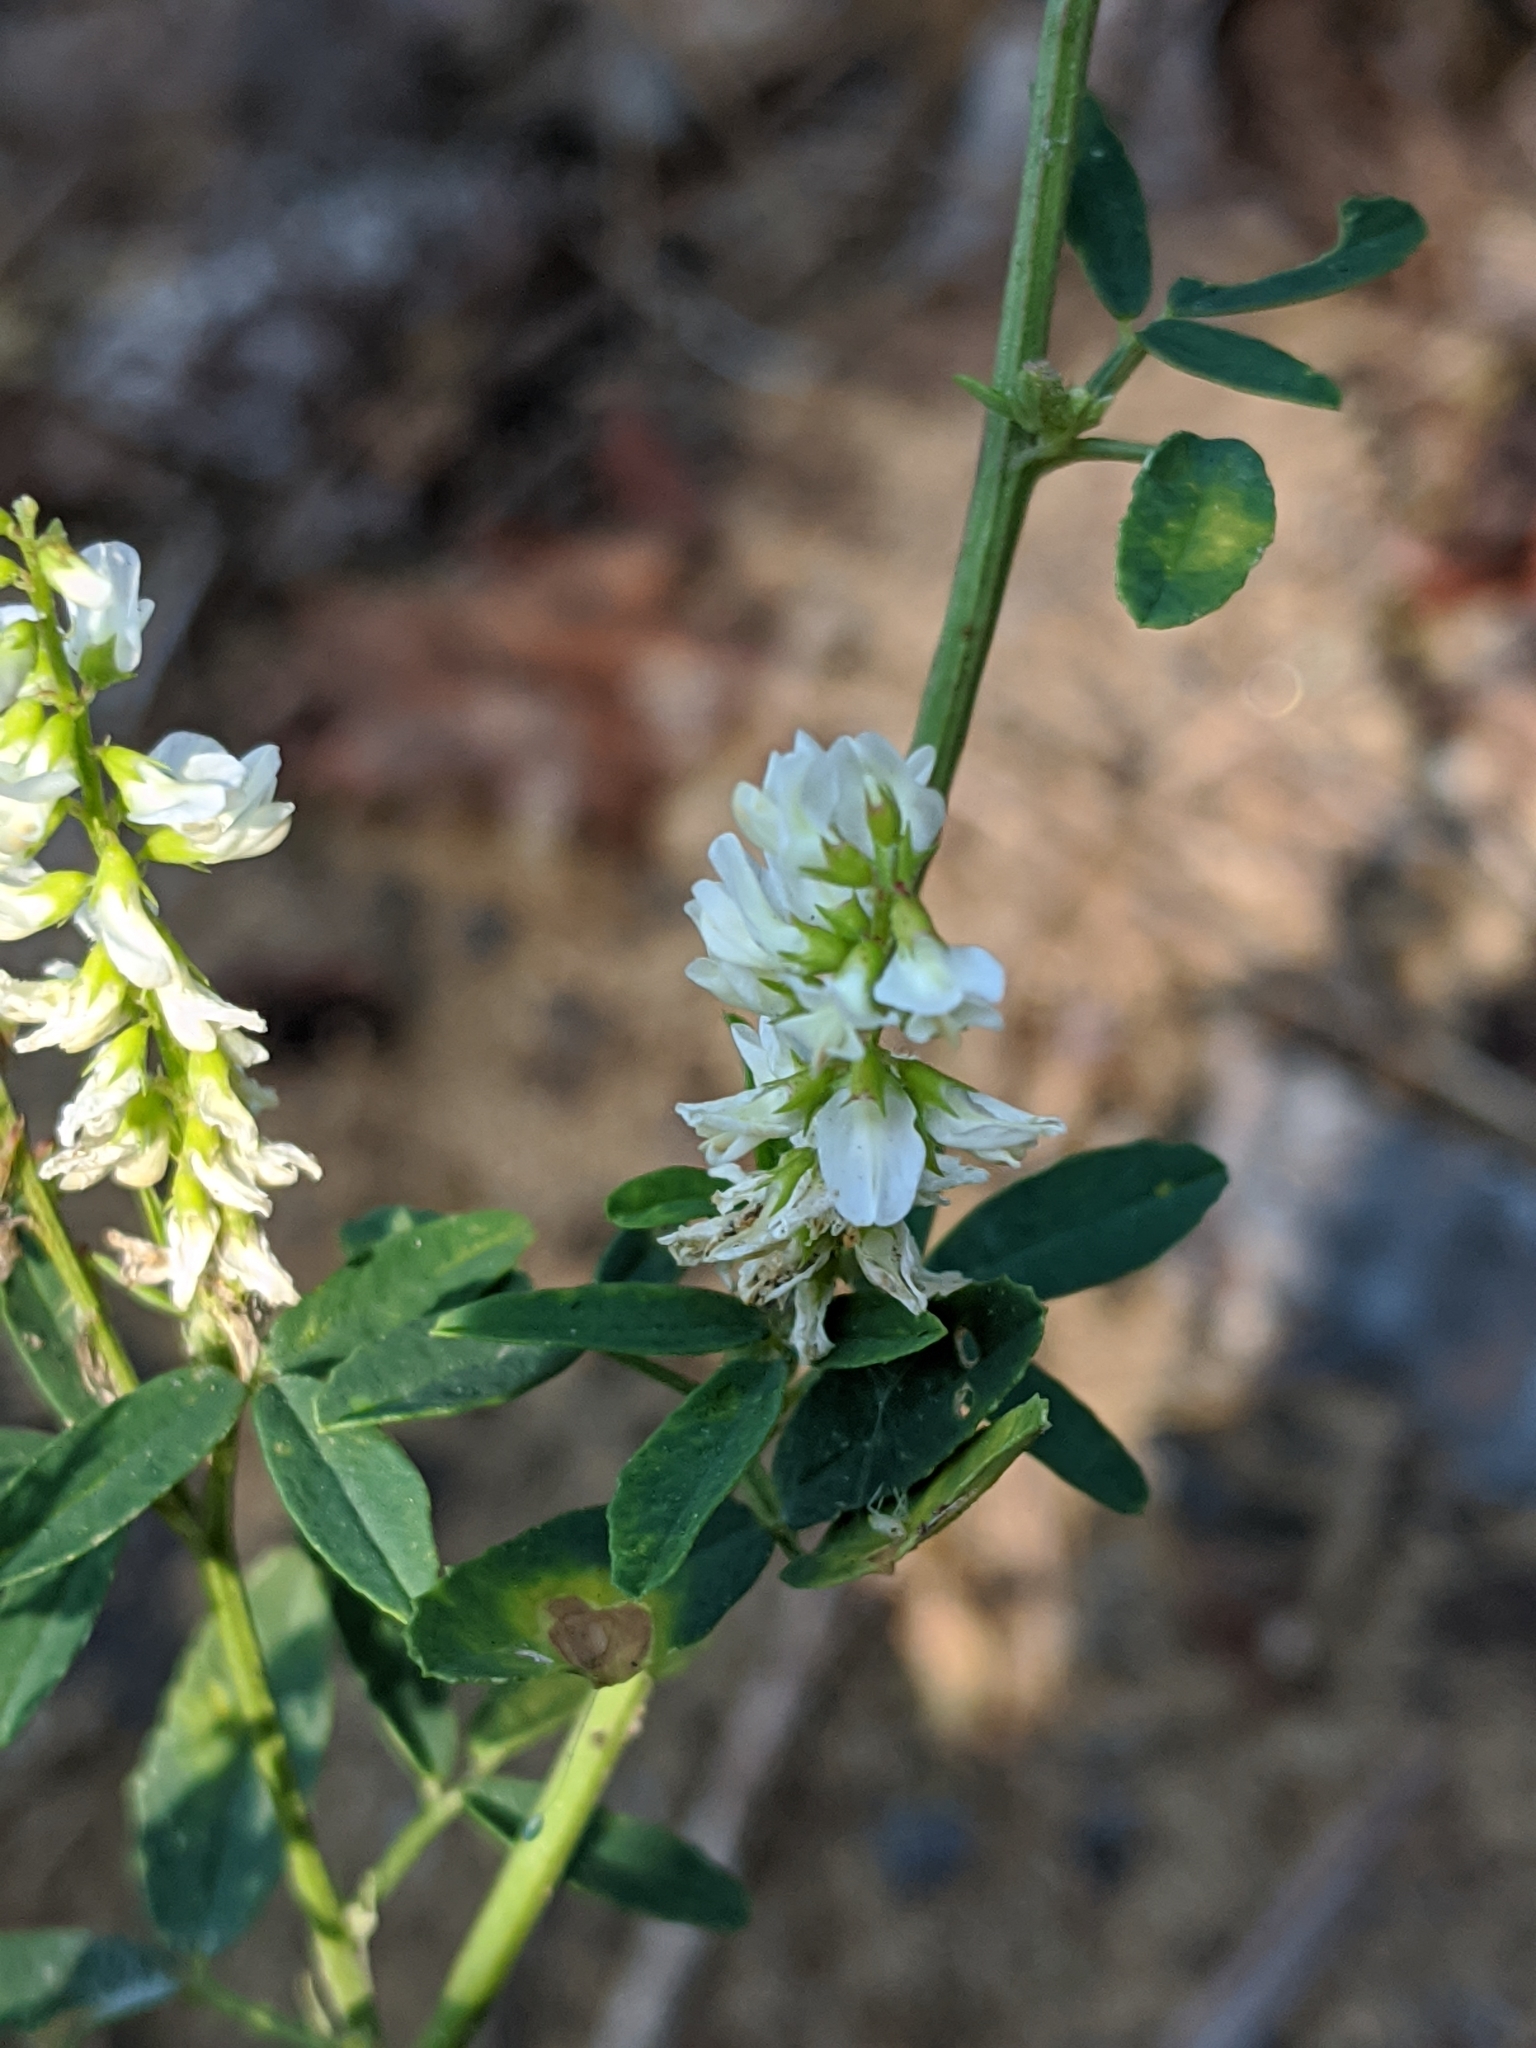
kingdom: Plantae
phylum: Tracheophyta
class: Magnoliopsida
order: Fabales
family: Fabaceae
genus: Melilotus
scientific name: Melilotus albus
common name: White melilot
